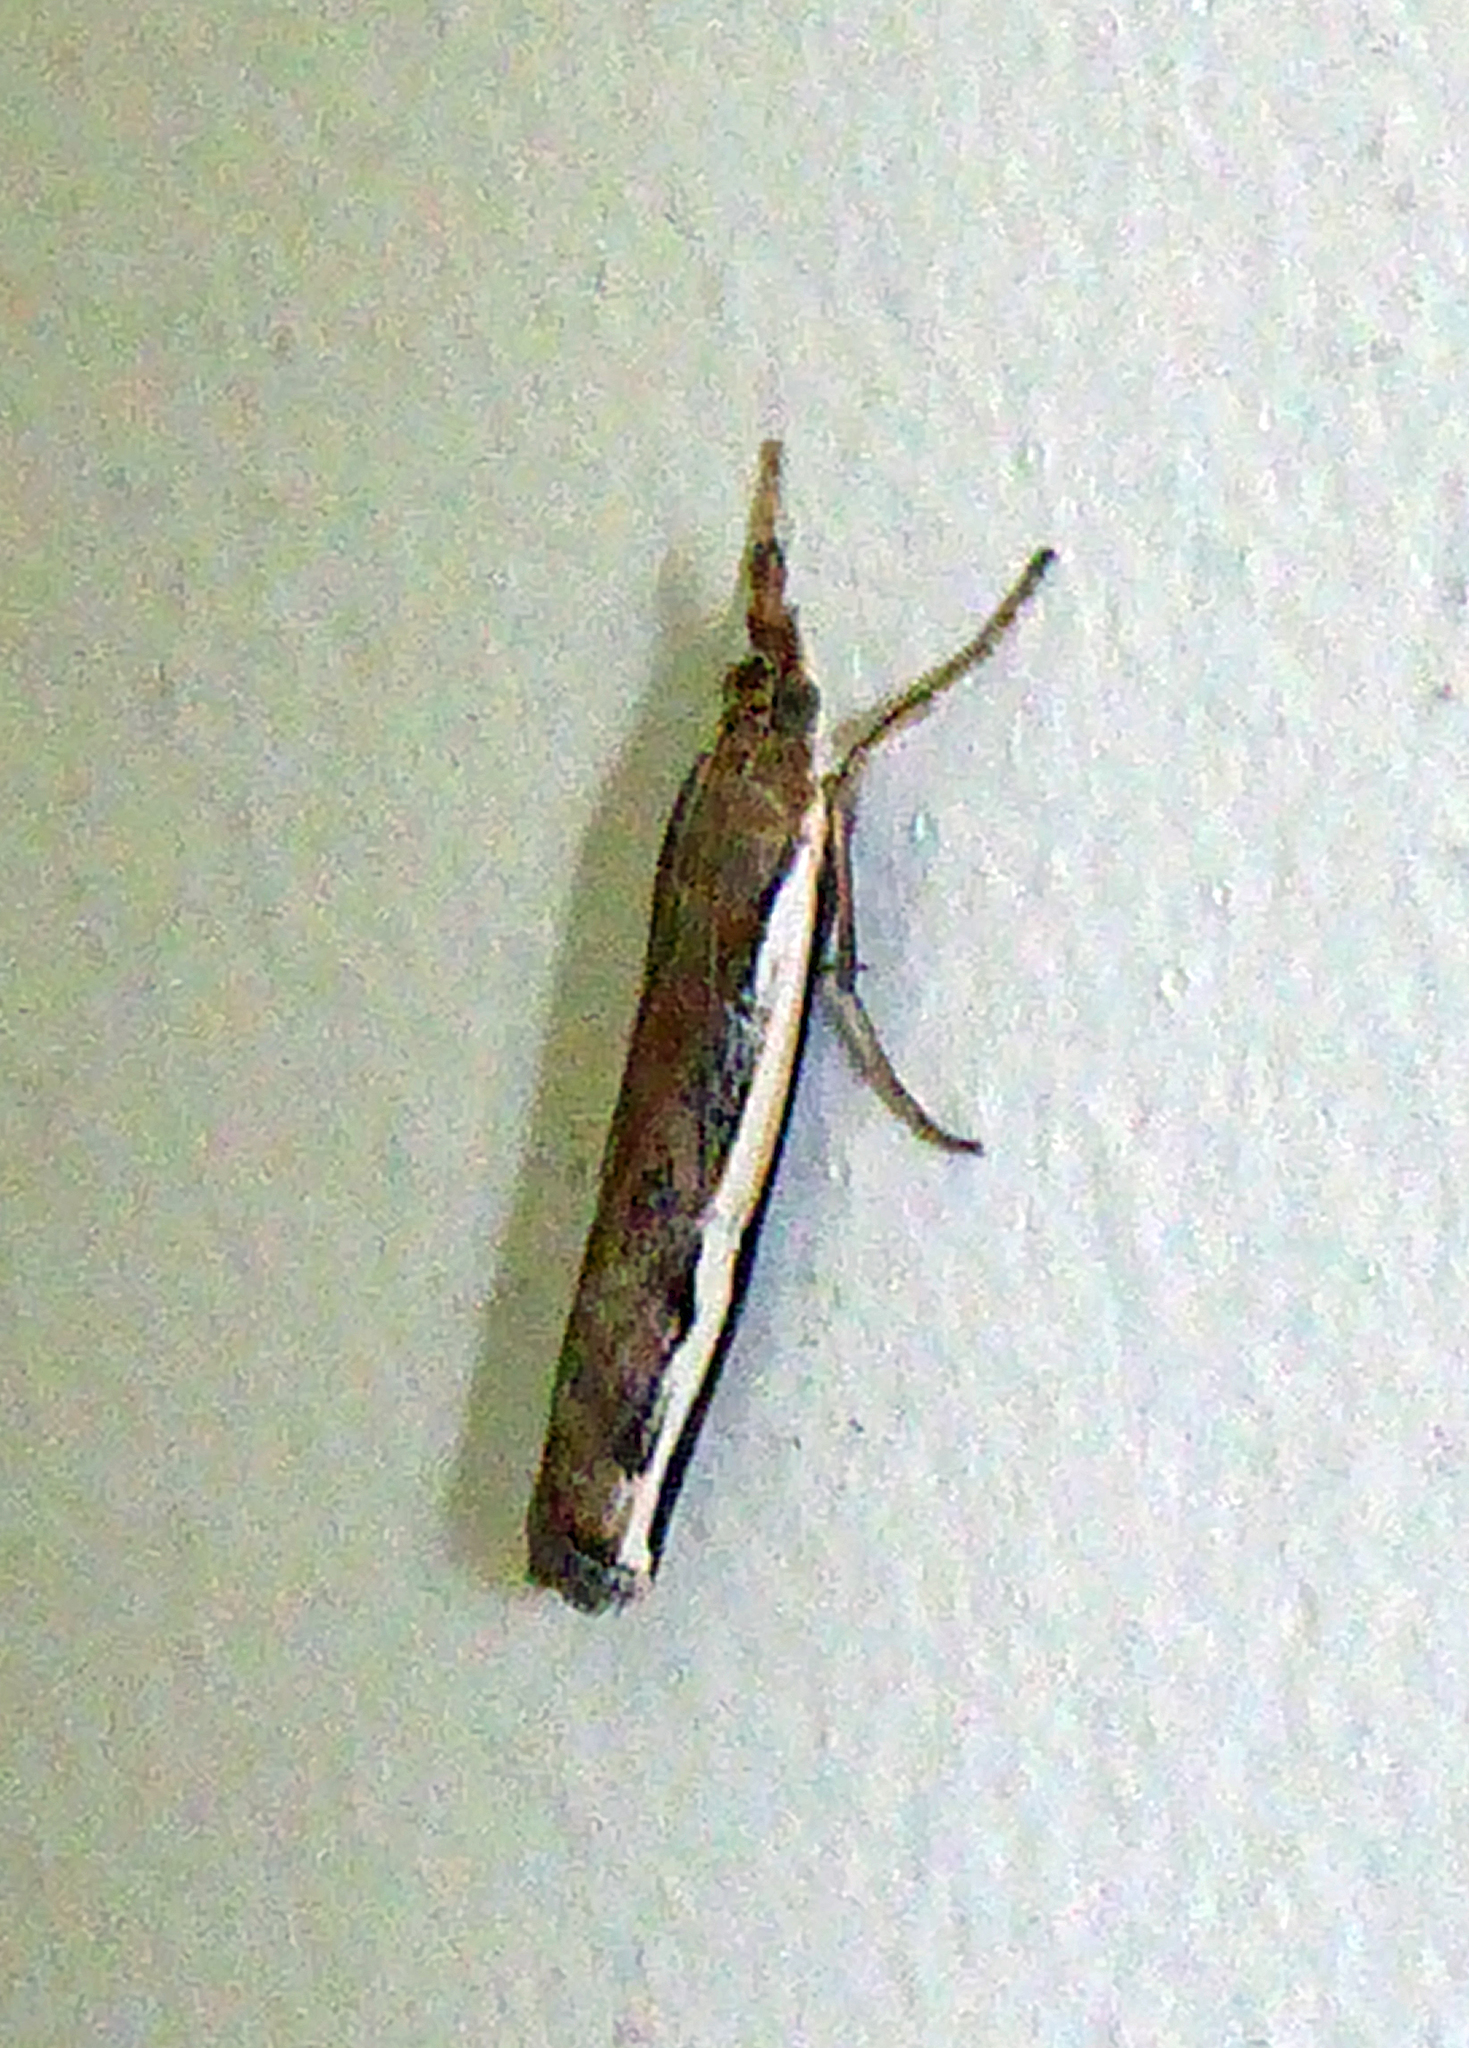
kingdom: Animalia
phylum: Arthropoda
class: Insecta
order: Lepidoptera
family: Crambidae
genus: Orocrambus
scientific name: Orocrambus flexuosellus
